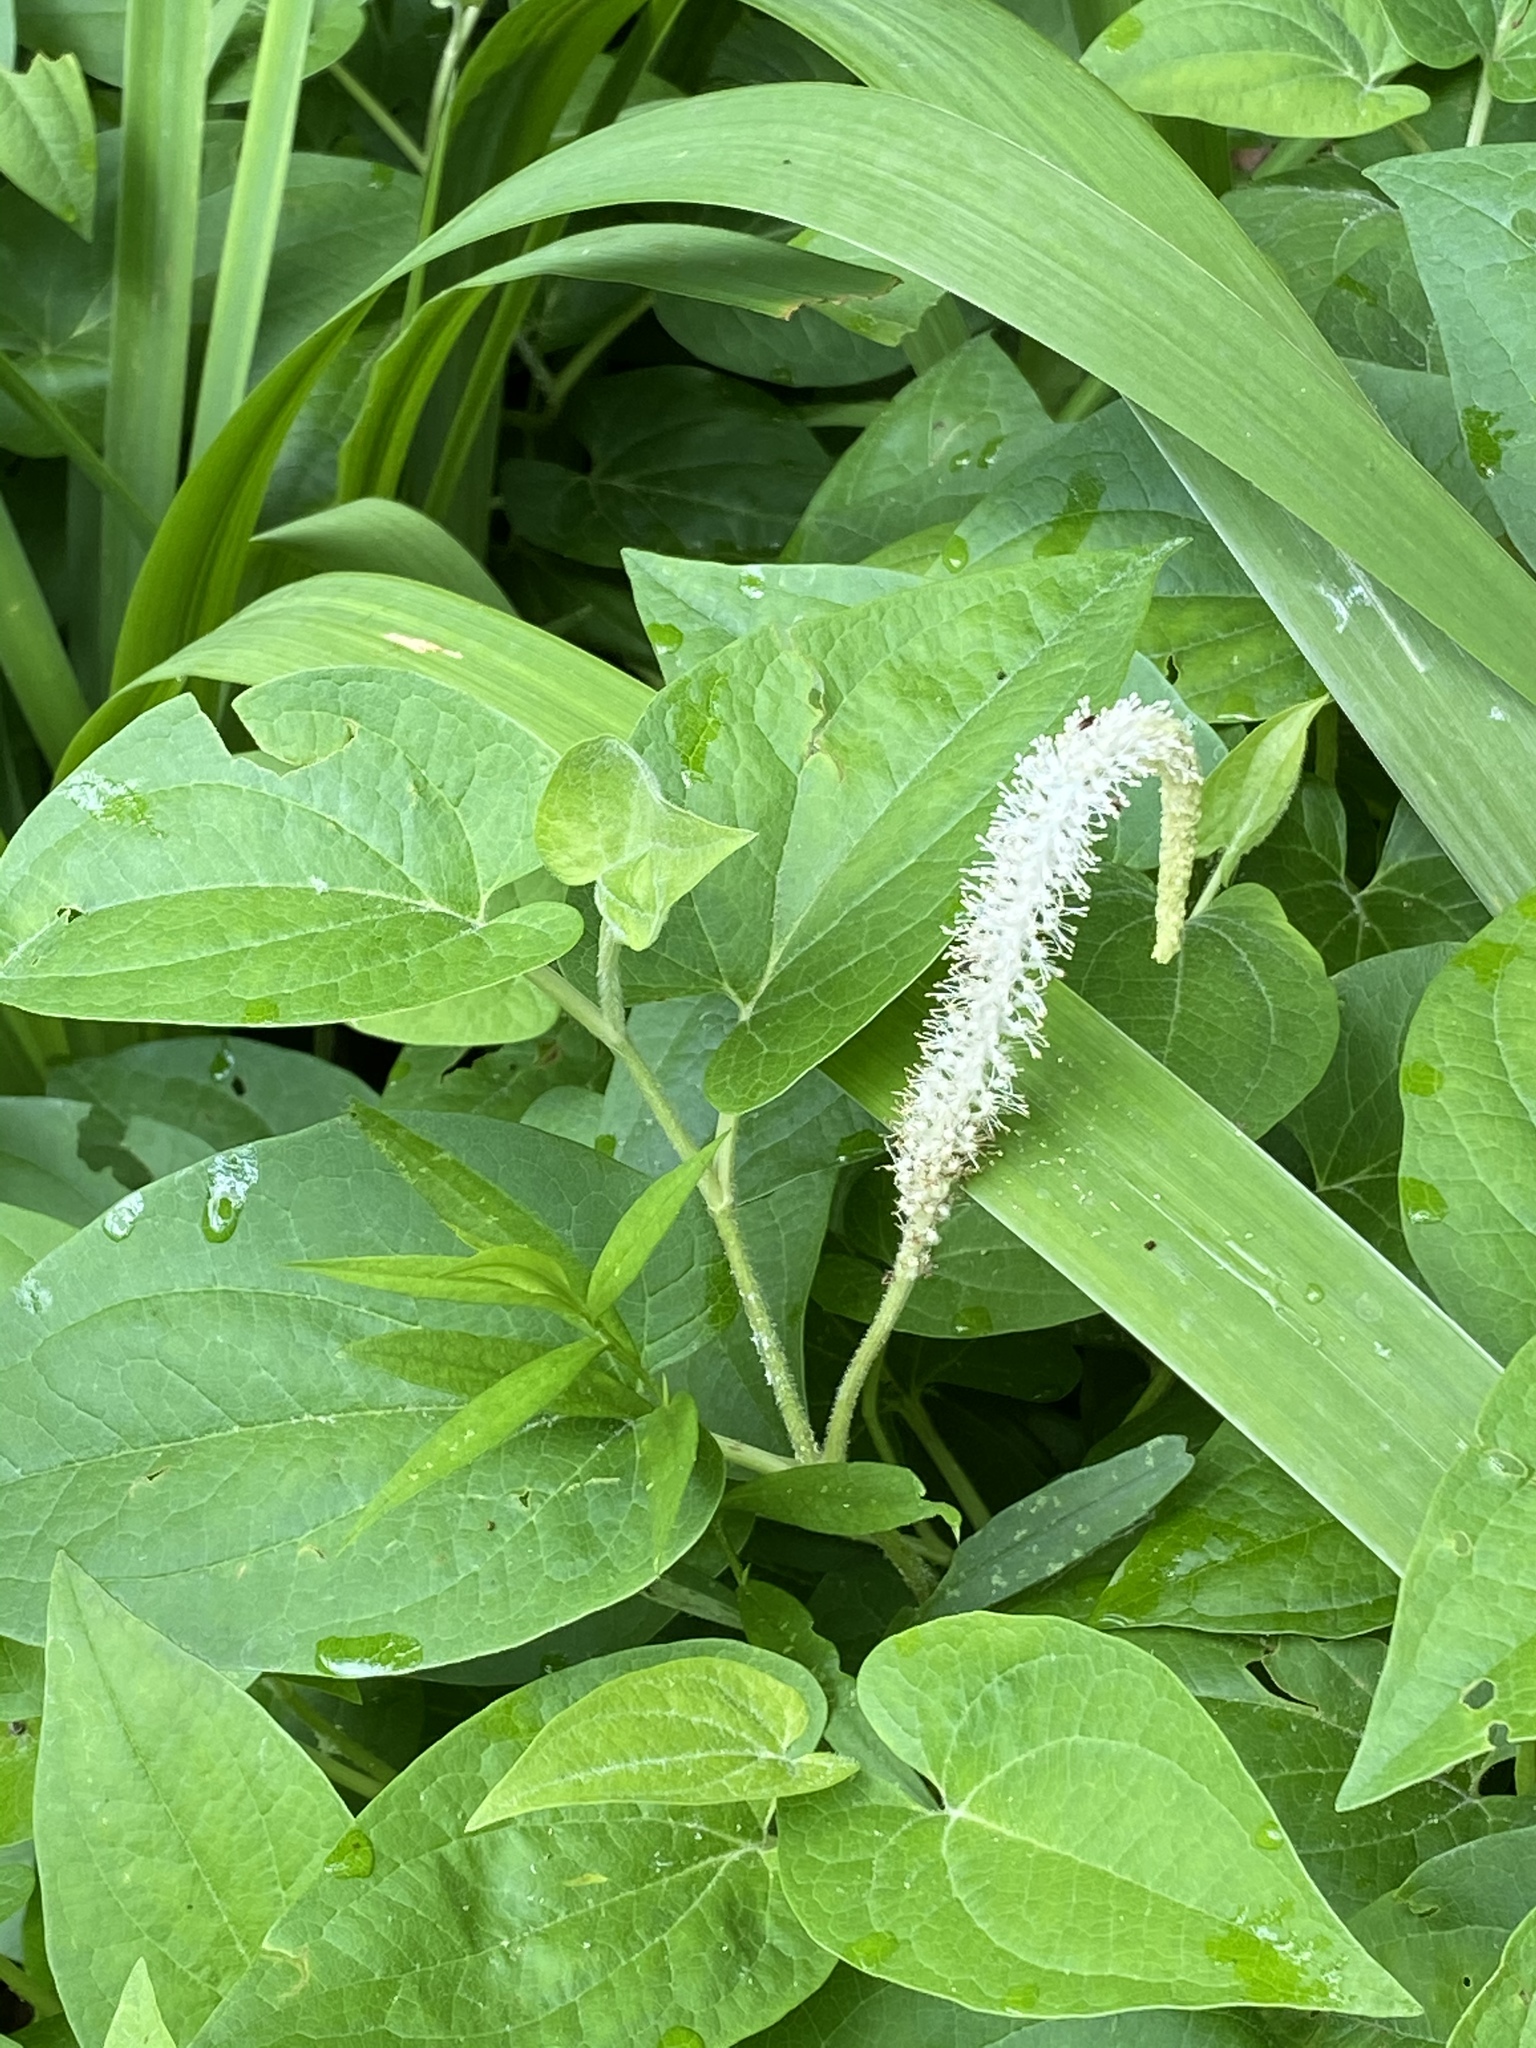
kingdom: Plantae
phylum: Tracheophyta
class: Magnoliopsida
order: Piperales
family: Saururaceae
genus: Saururus
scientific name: Saururus cernuus
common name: Lizard's-tail
